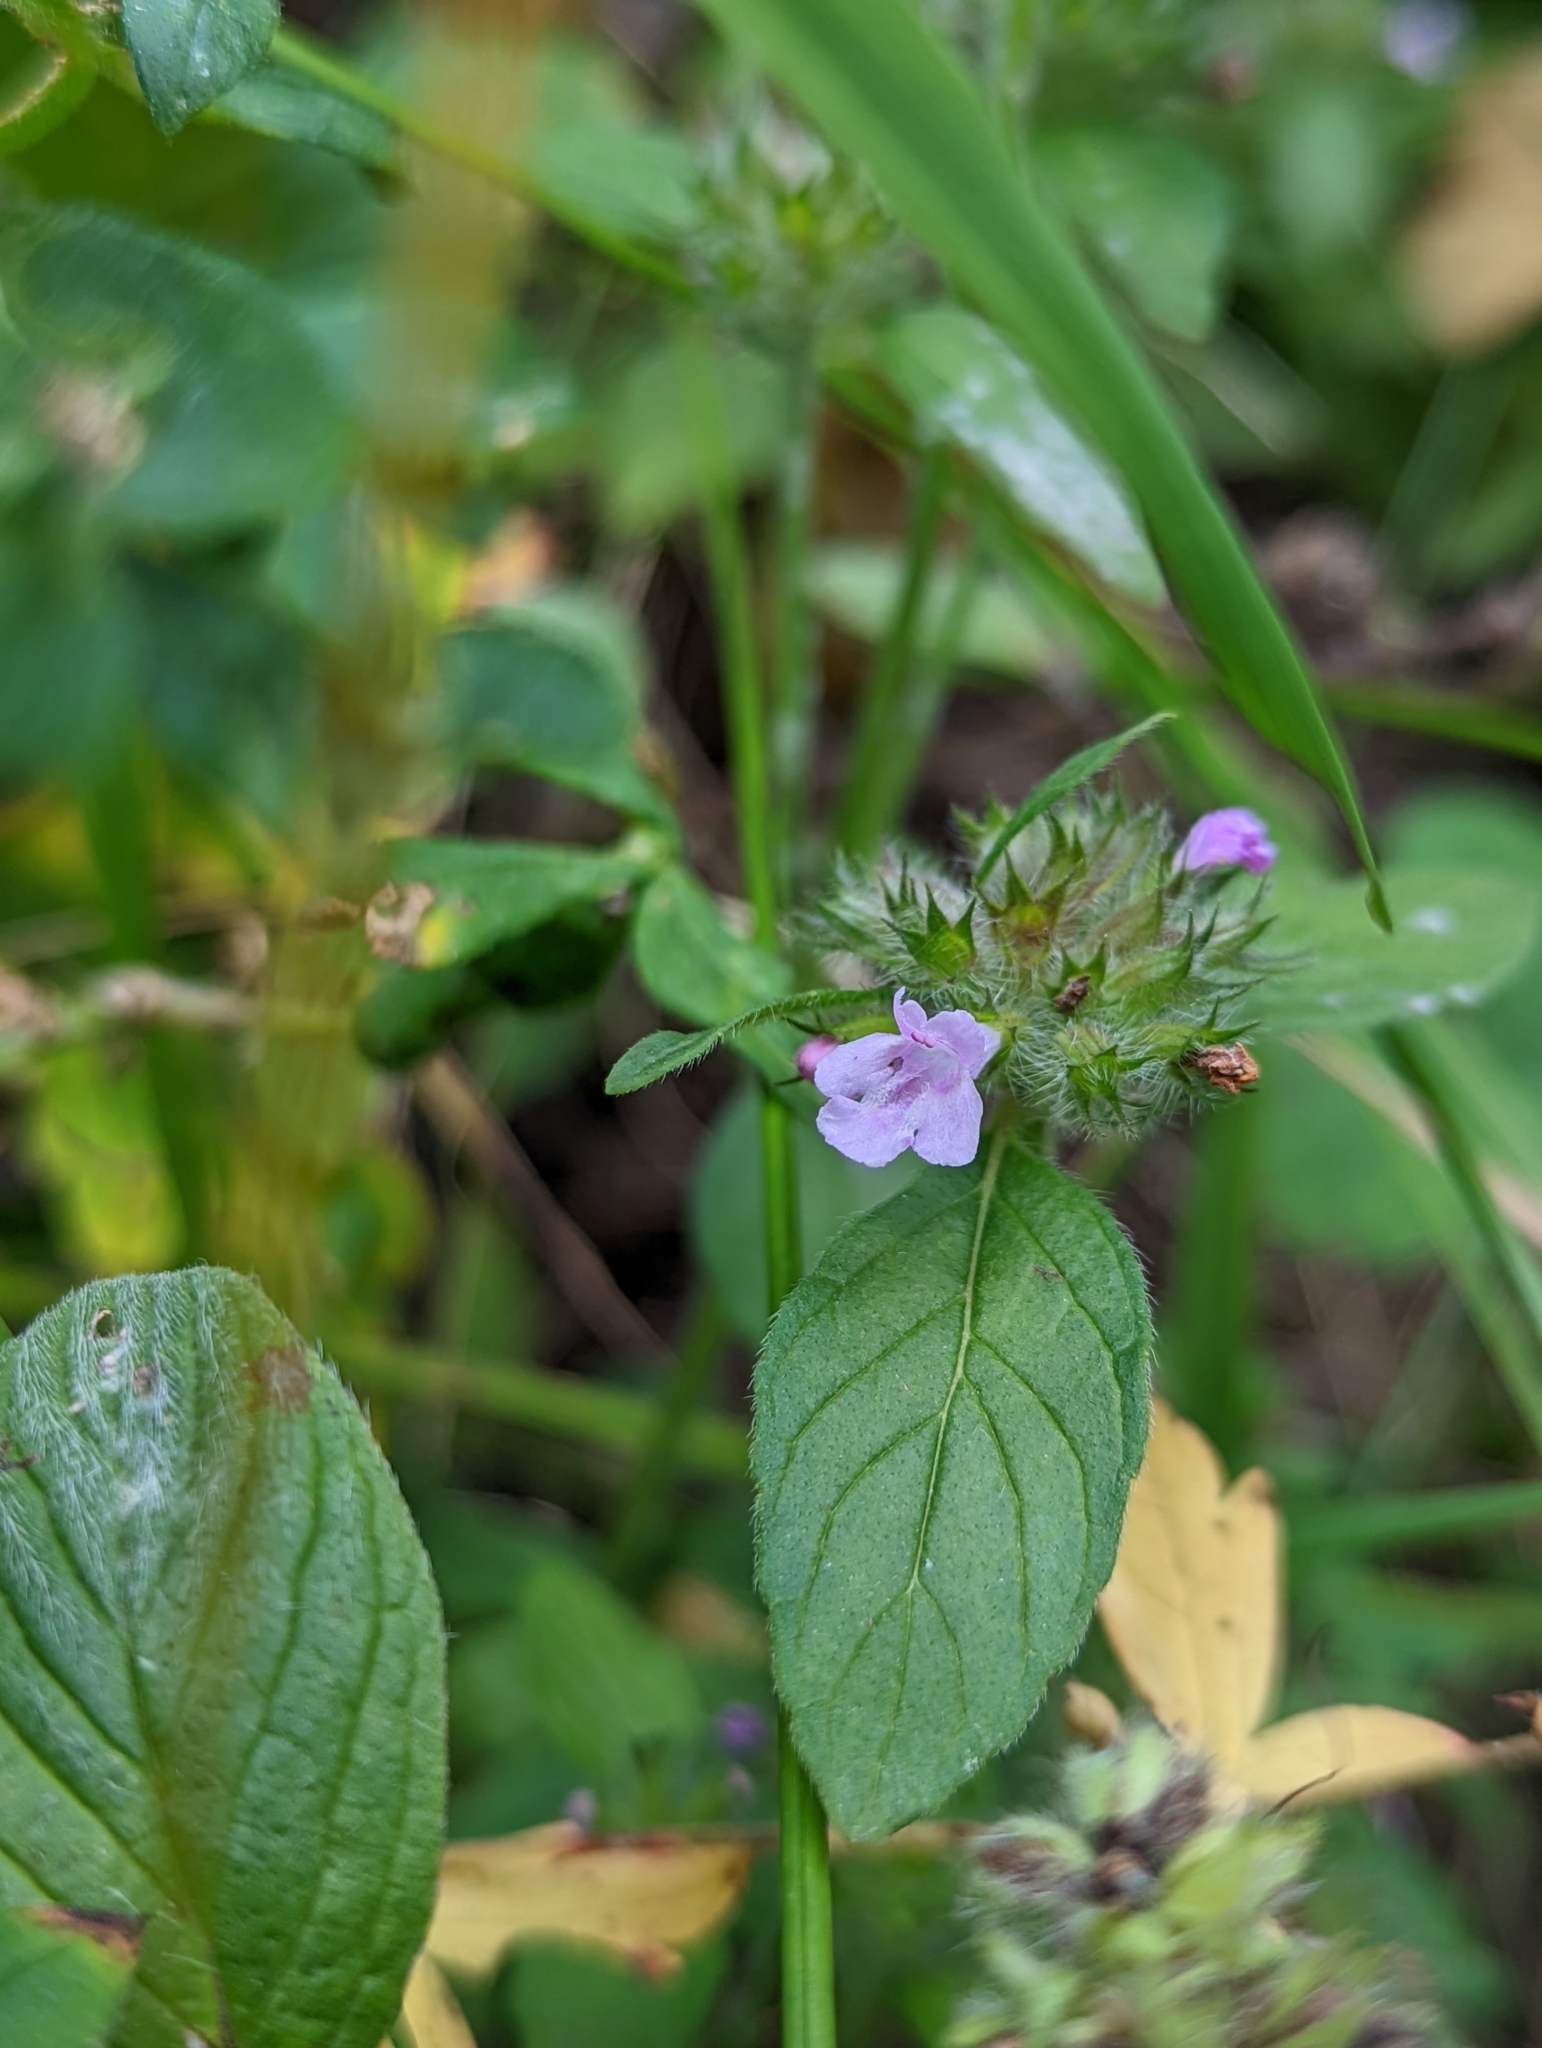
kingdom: Plantae
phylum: Tracheophyta
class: Magnoliopsida
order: Lamiales
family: Lamiaceae
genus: Clinopodium
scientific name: Clinopodium vulgare
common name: Wild basil
